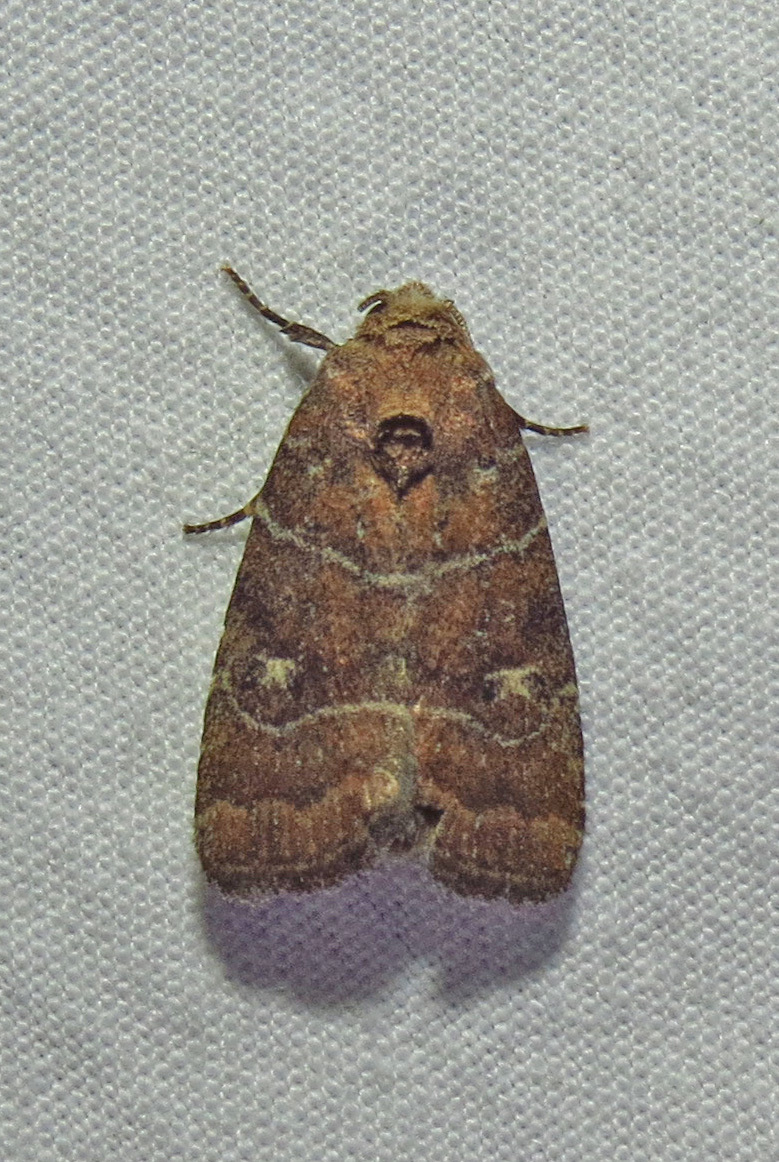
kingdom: Animalia
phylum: Arthropoda
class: Insecta
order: Lepidoptera
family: Noctuidae
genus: Elaphria
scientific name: Elaphria grata
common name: Grateful midget moth
